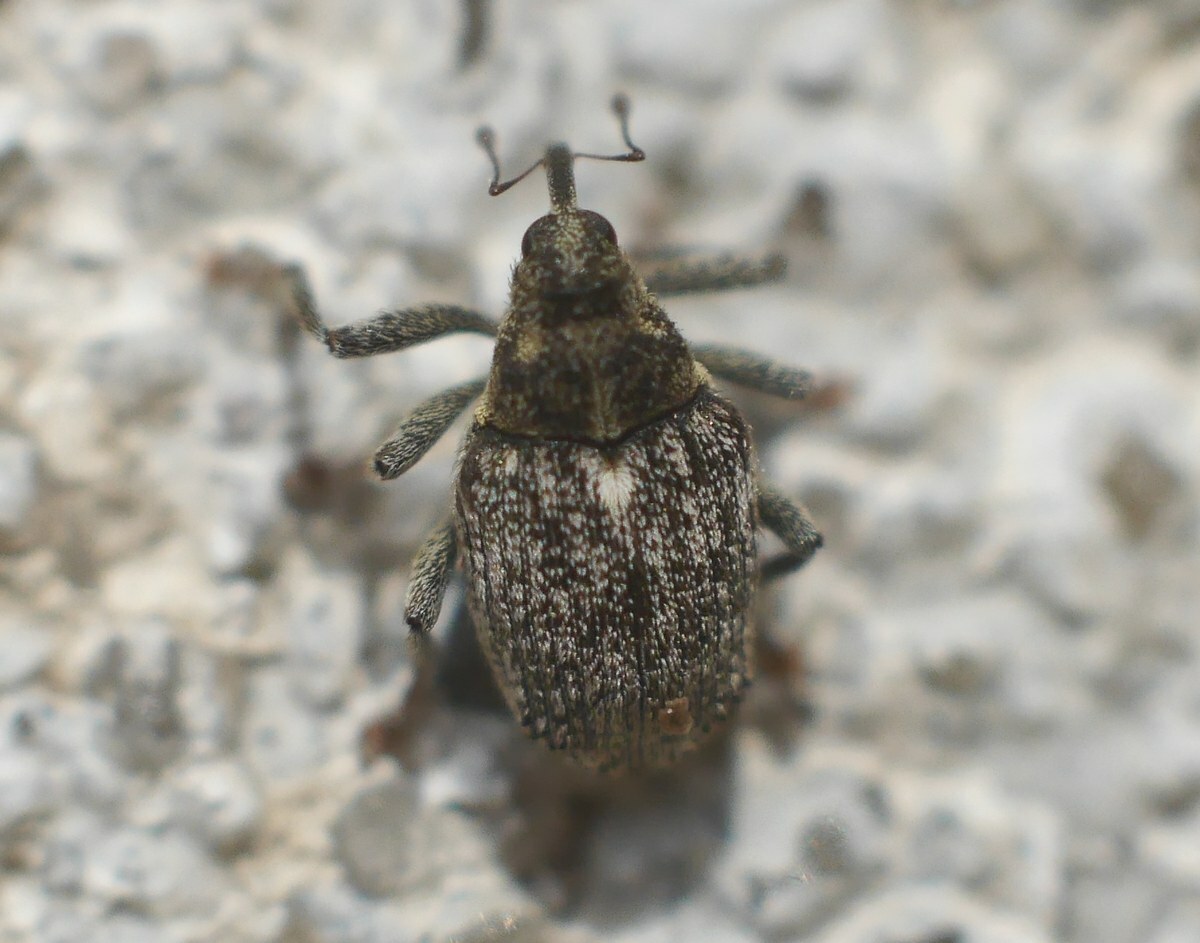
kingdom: Animalia
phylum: Arthropoda
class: Insecta
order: Coleoptera
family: Curculionidae
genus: Ceutorhynchus
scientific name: Ceutorhynchus pallidactylus
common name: Cabbage stem weavil
